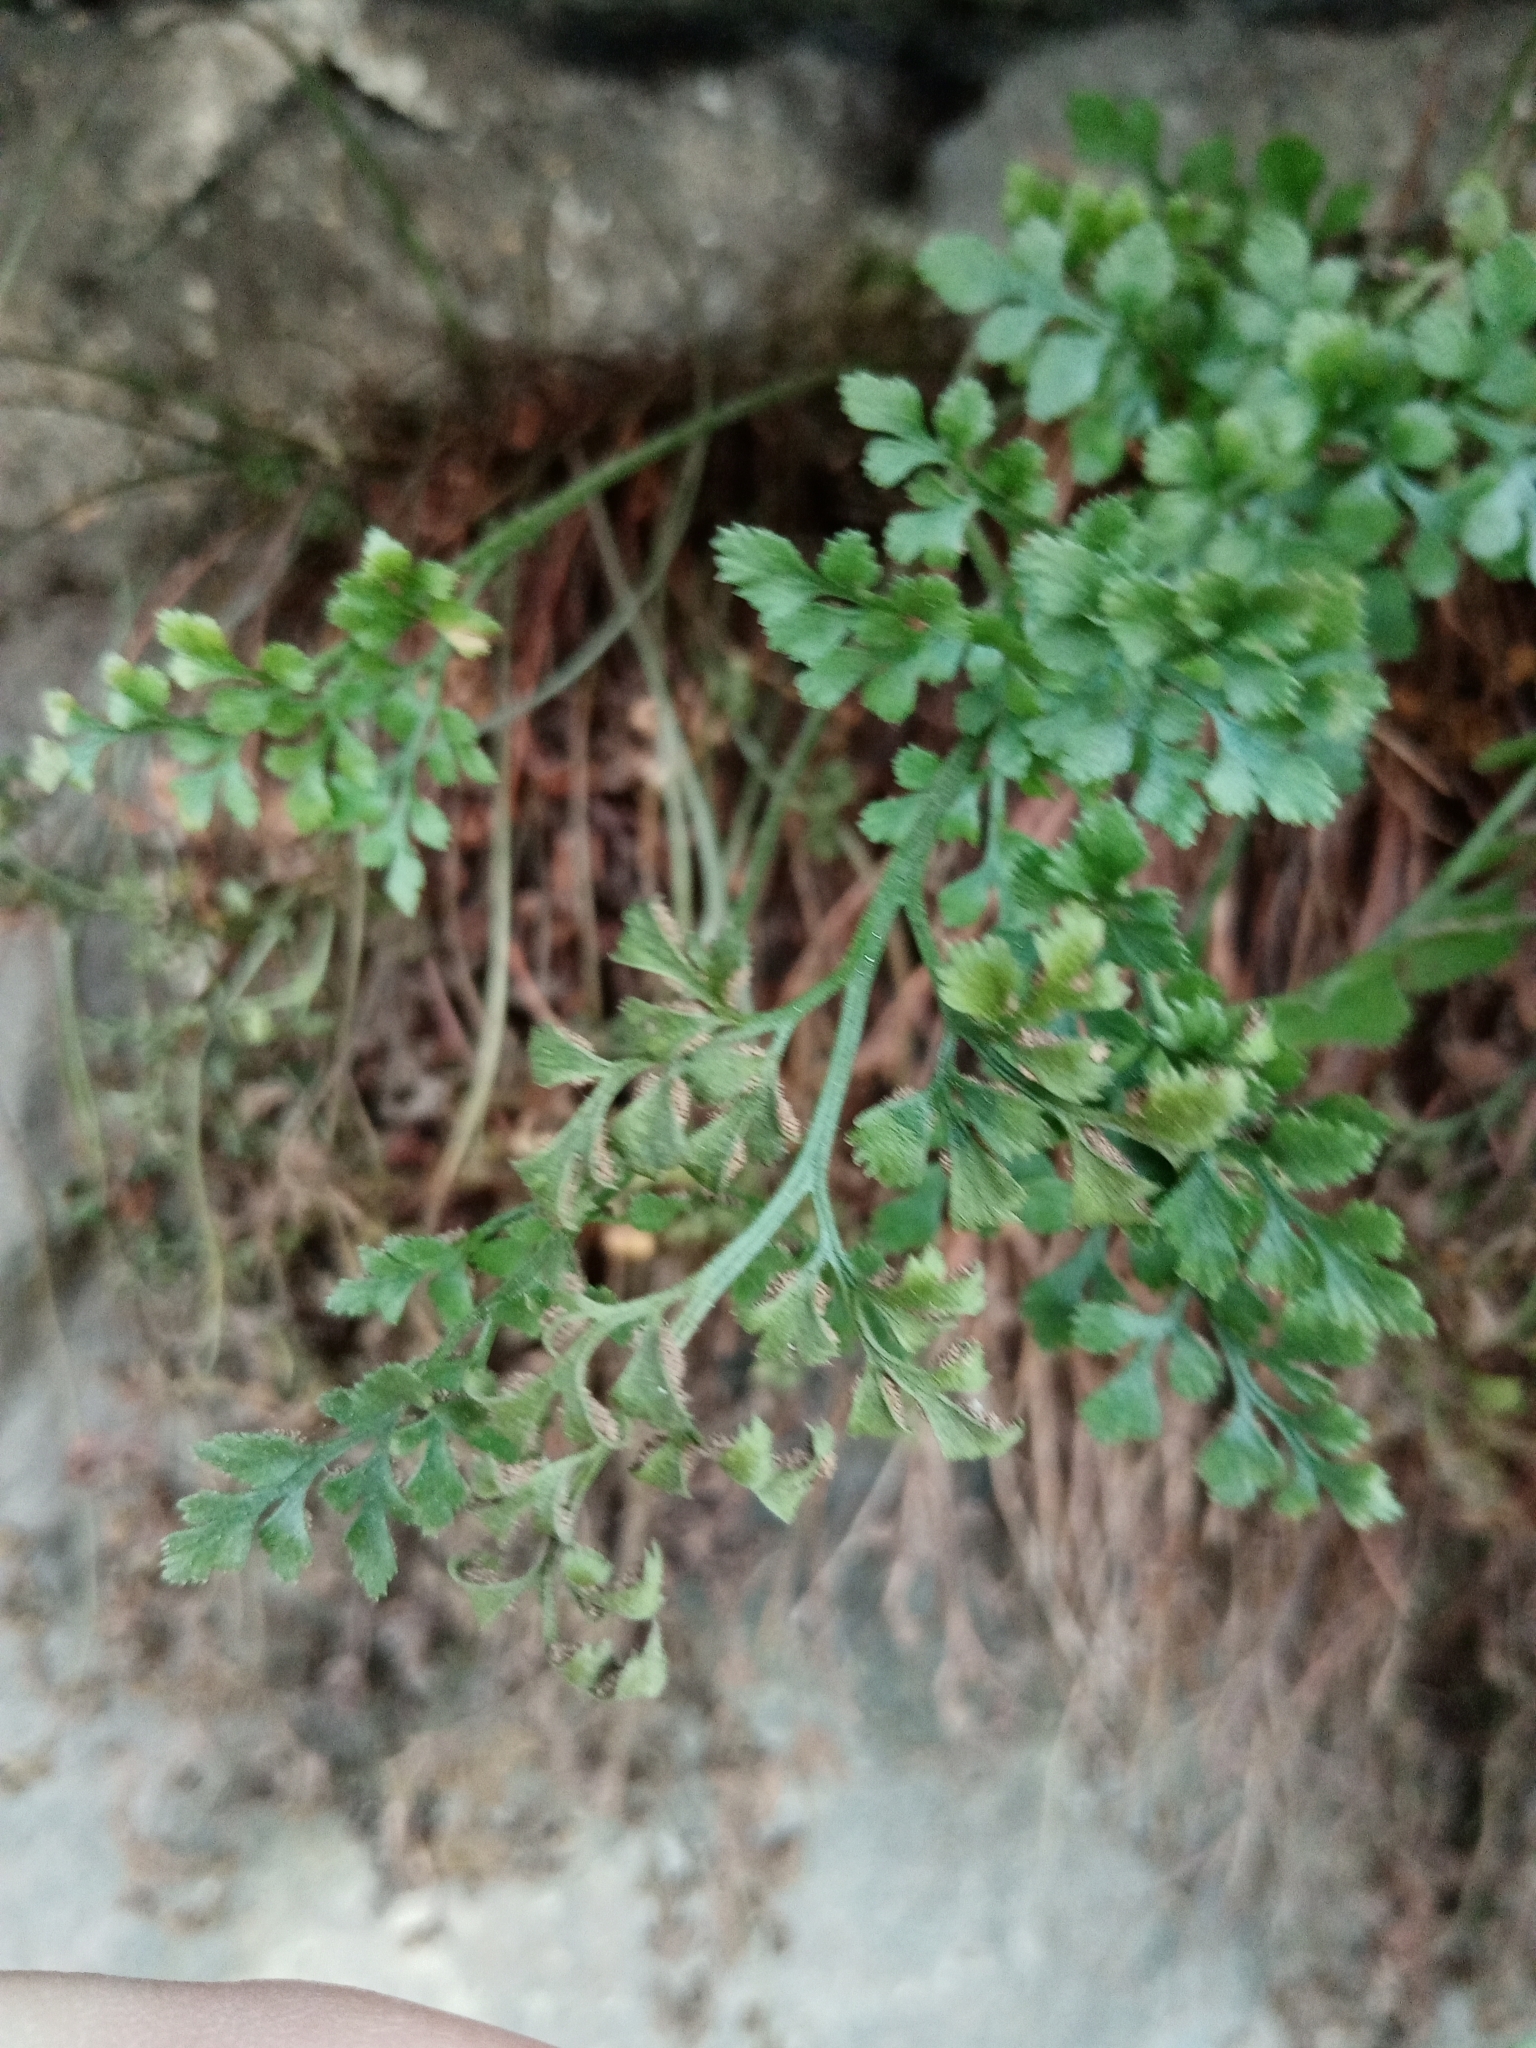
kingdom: Plantae
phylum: Tracheophyta
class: Polypodiopsida
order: Polypodiales
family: Aspleniaceae
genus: Asplenium
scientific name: Asplenium ruta-muraria
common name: Wall-rue
